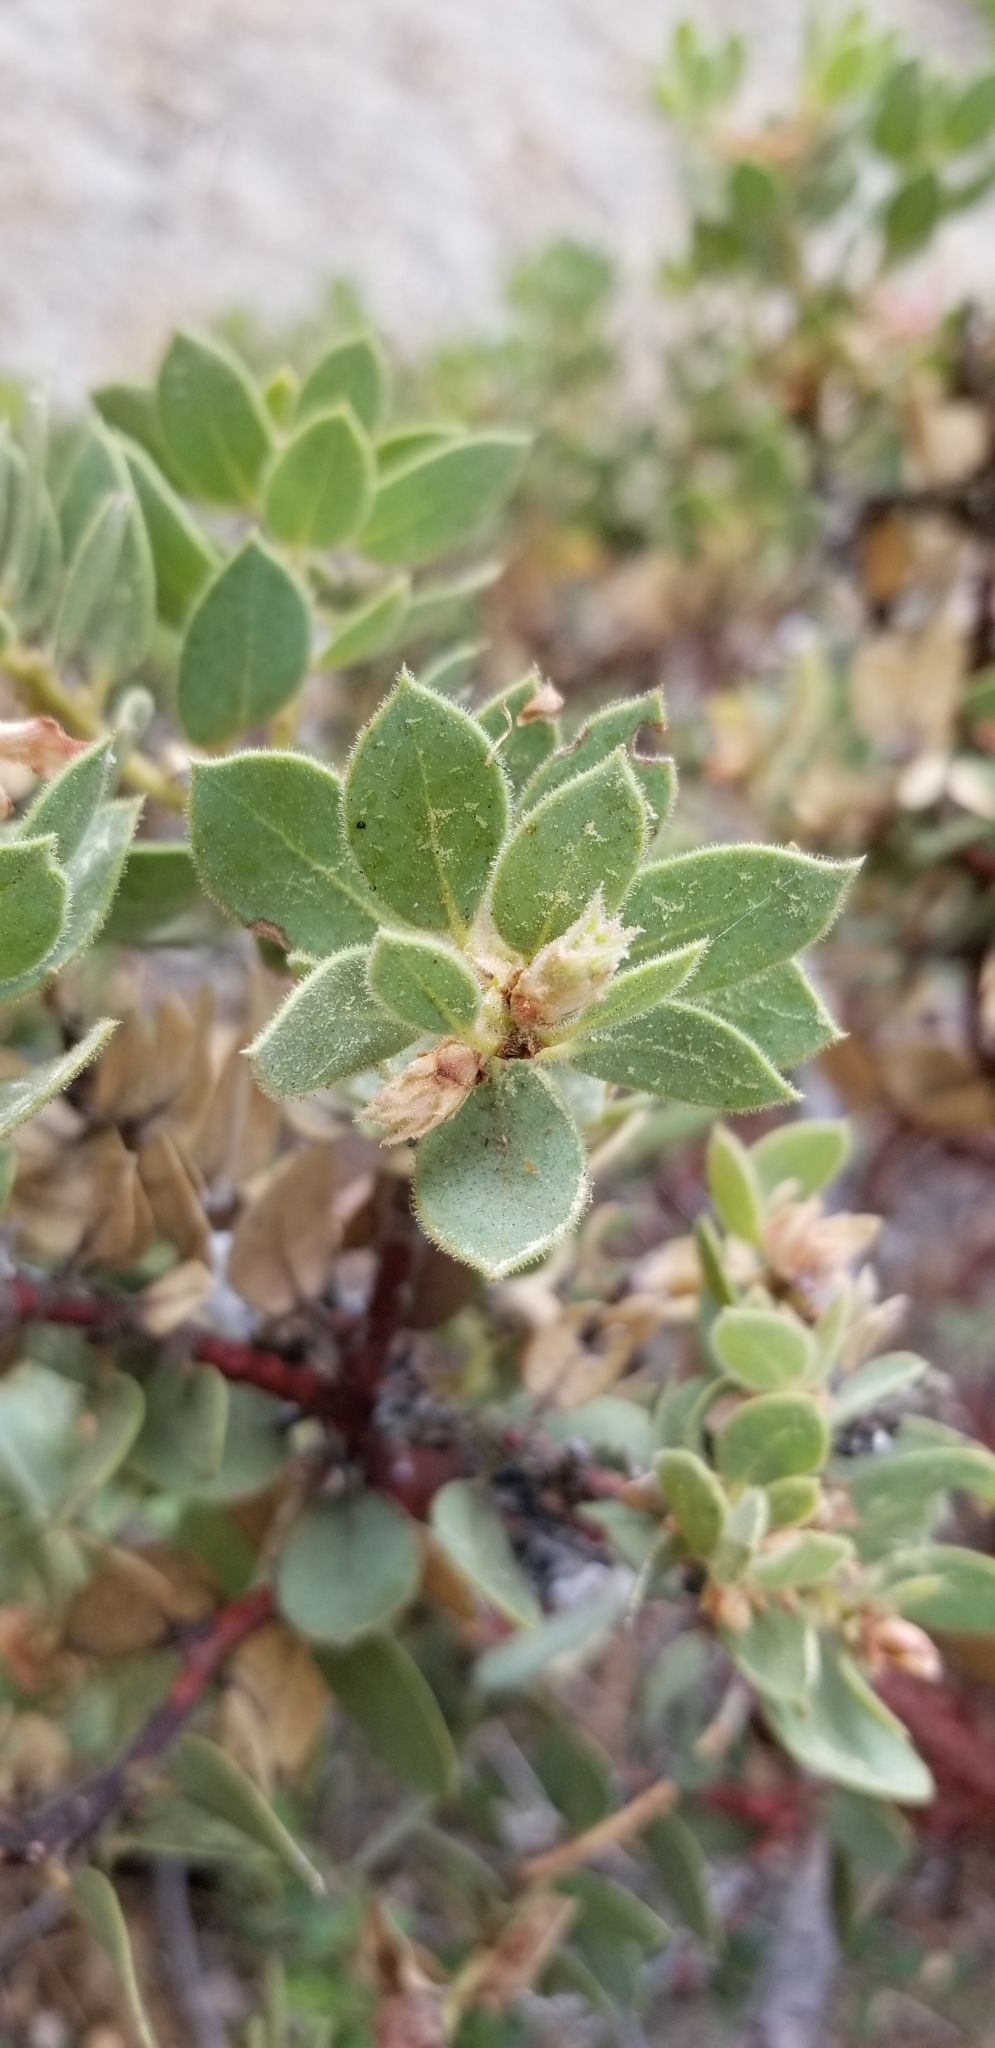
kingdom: Plantae
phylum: Tracheophyta
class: Magnoliopsida
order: Ericales
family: Ericaceae
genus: Arctostaphylos
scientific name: Arctostaphylos pringlei
